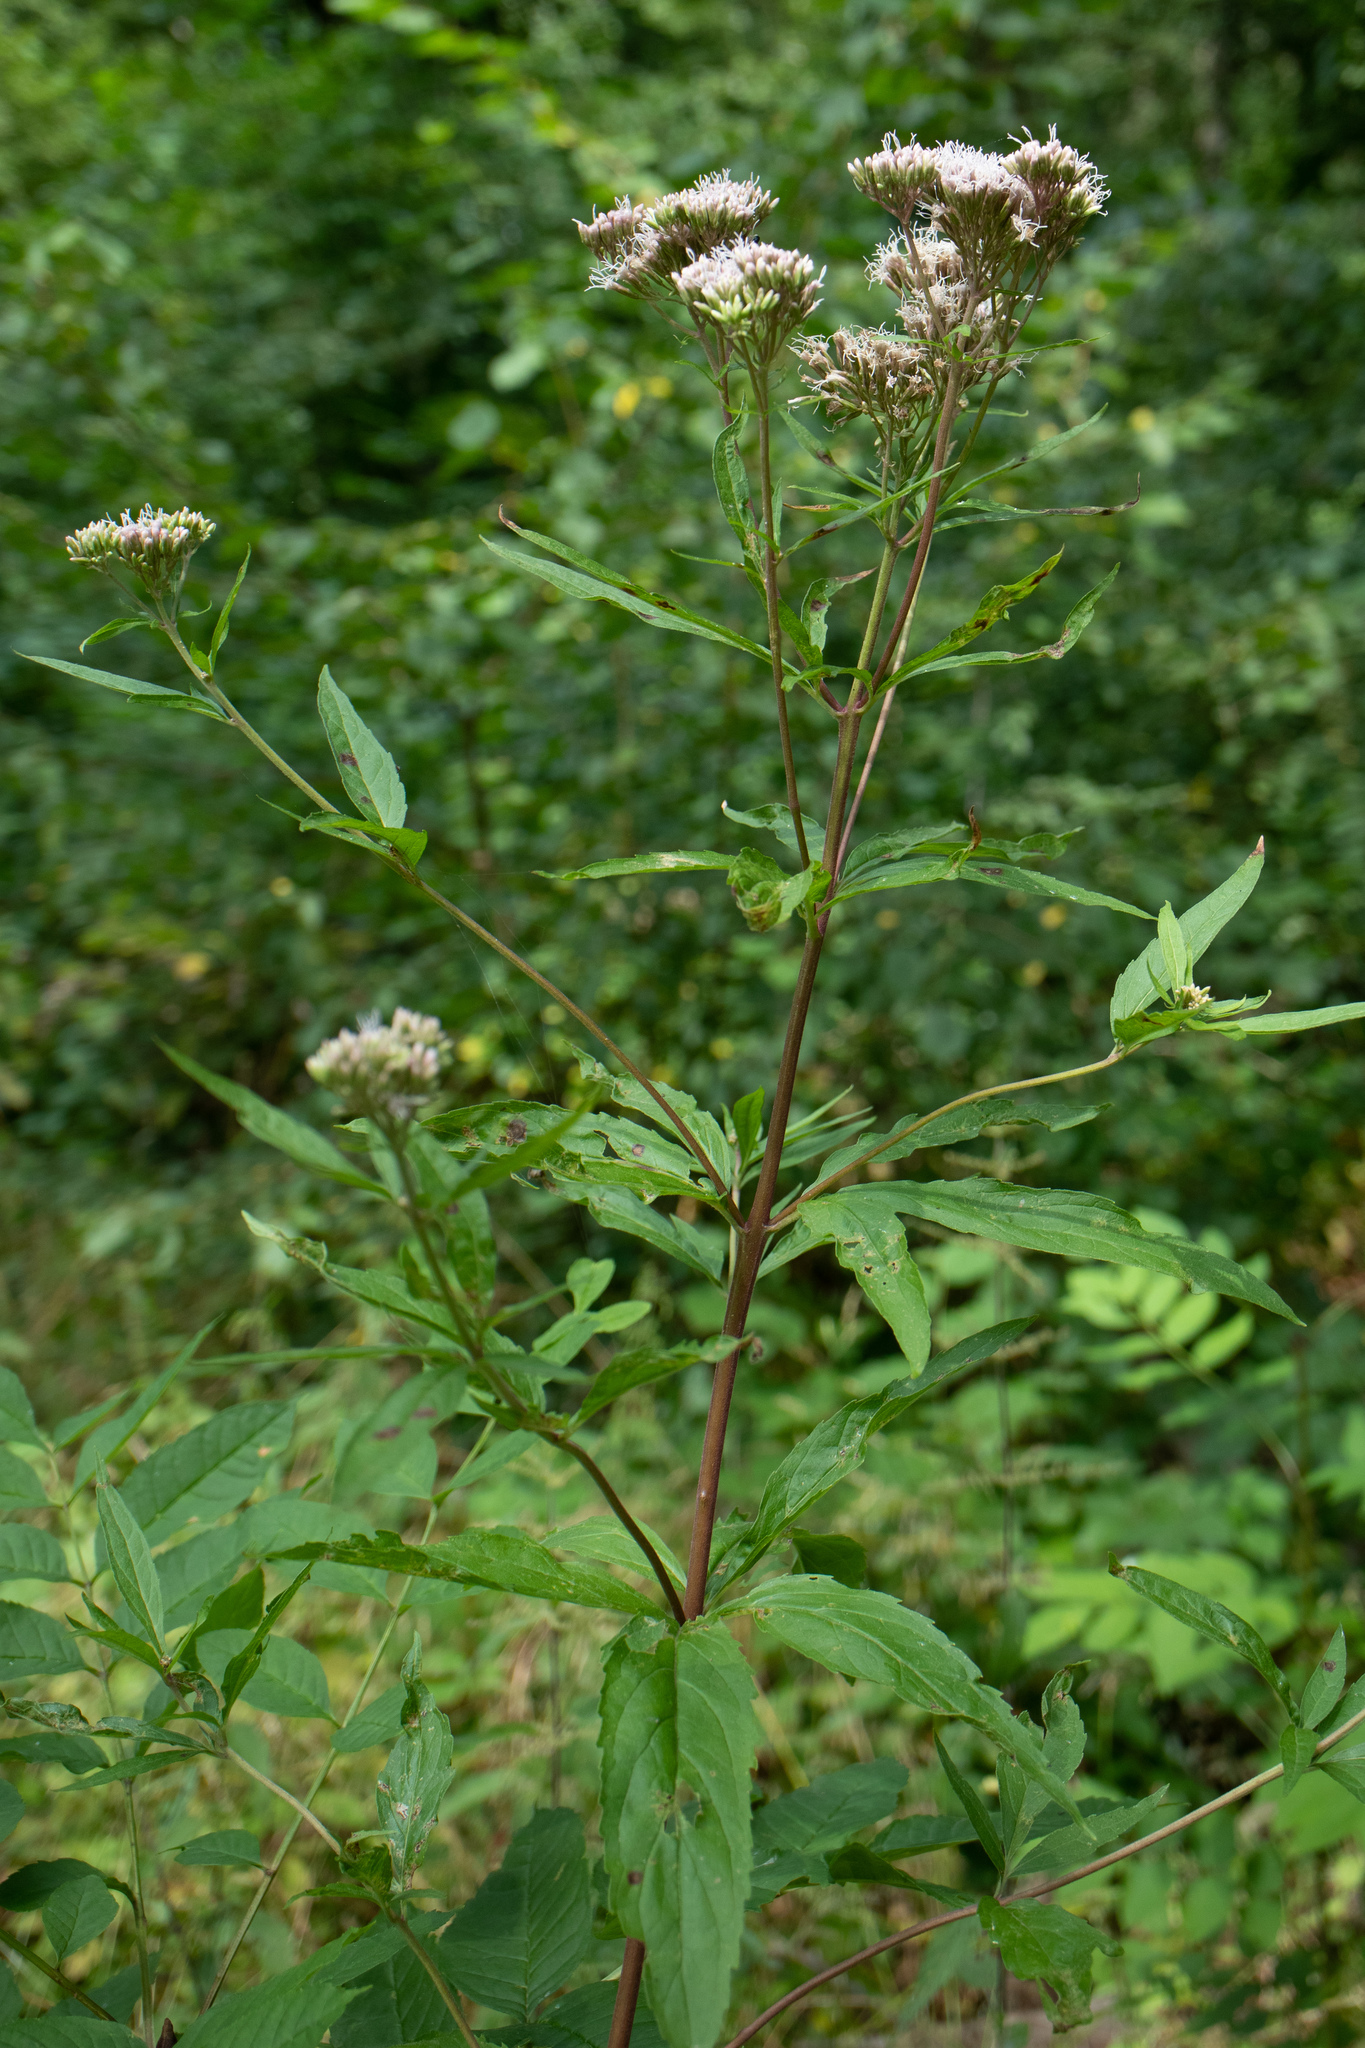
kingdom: Plantae
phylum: Tracheophyta
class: Magnoliopsida
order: Asterales
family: Asteraceae
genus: Eupatorium
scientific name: Eupatorium cannabinum
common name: Hemp-agrimony
